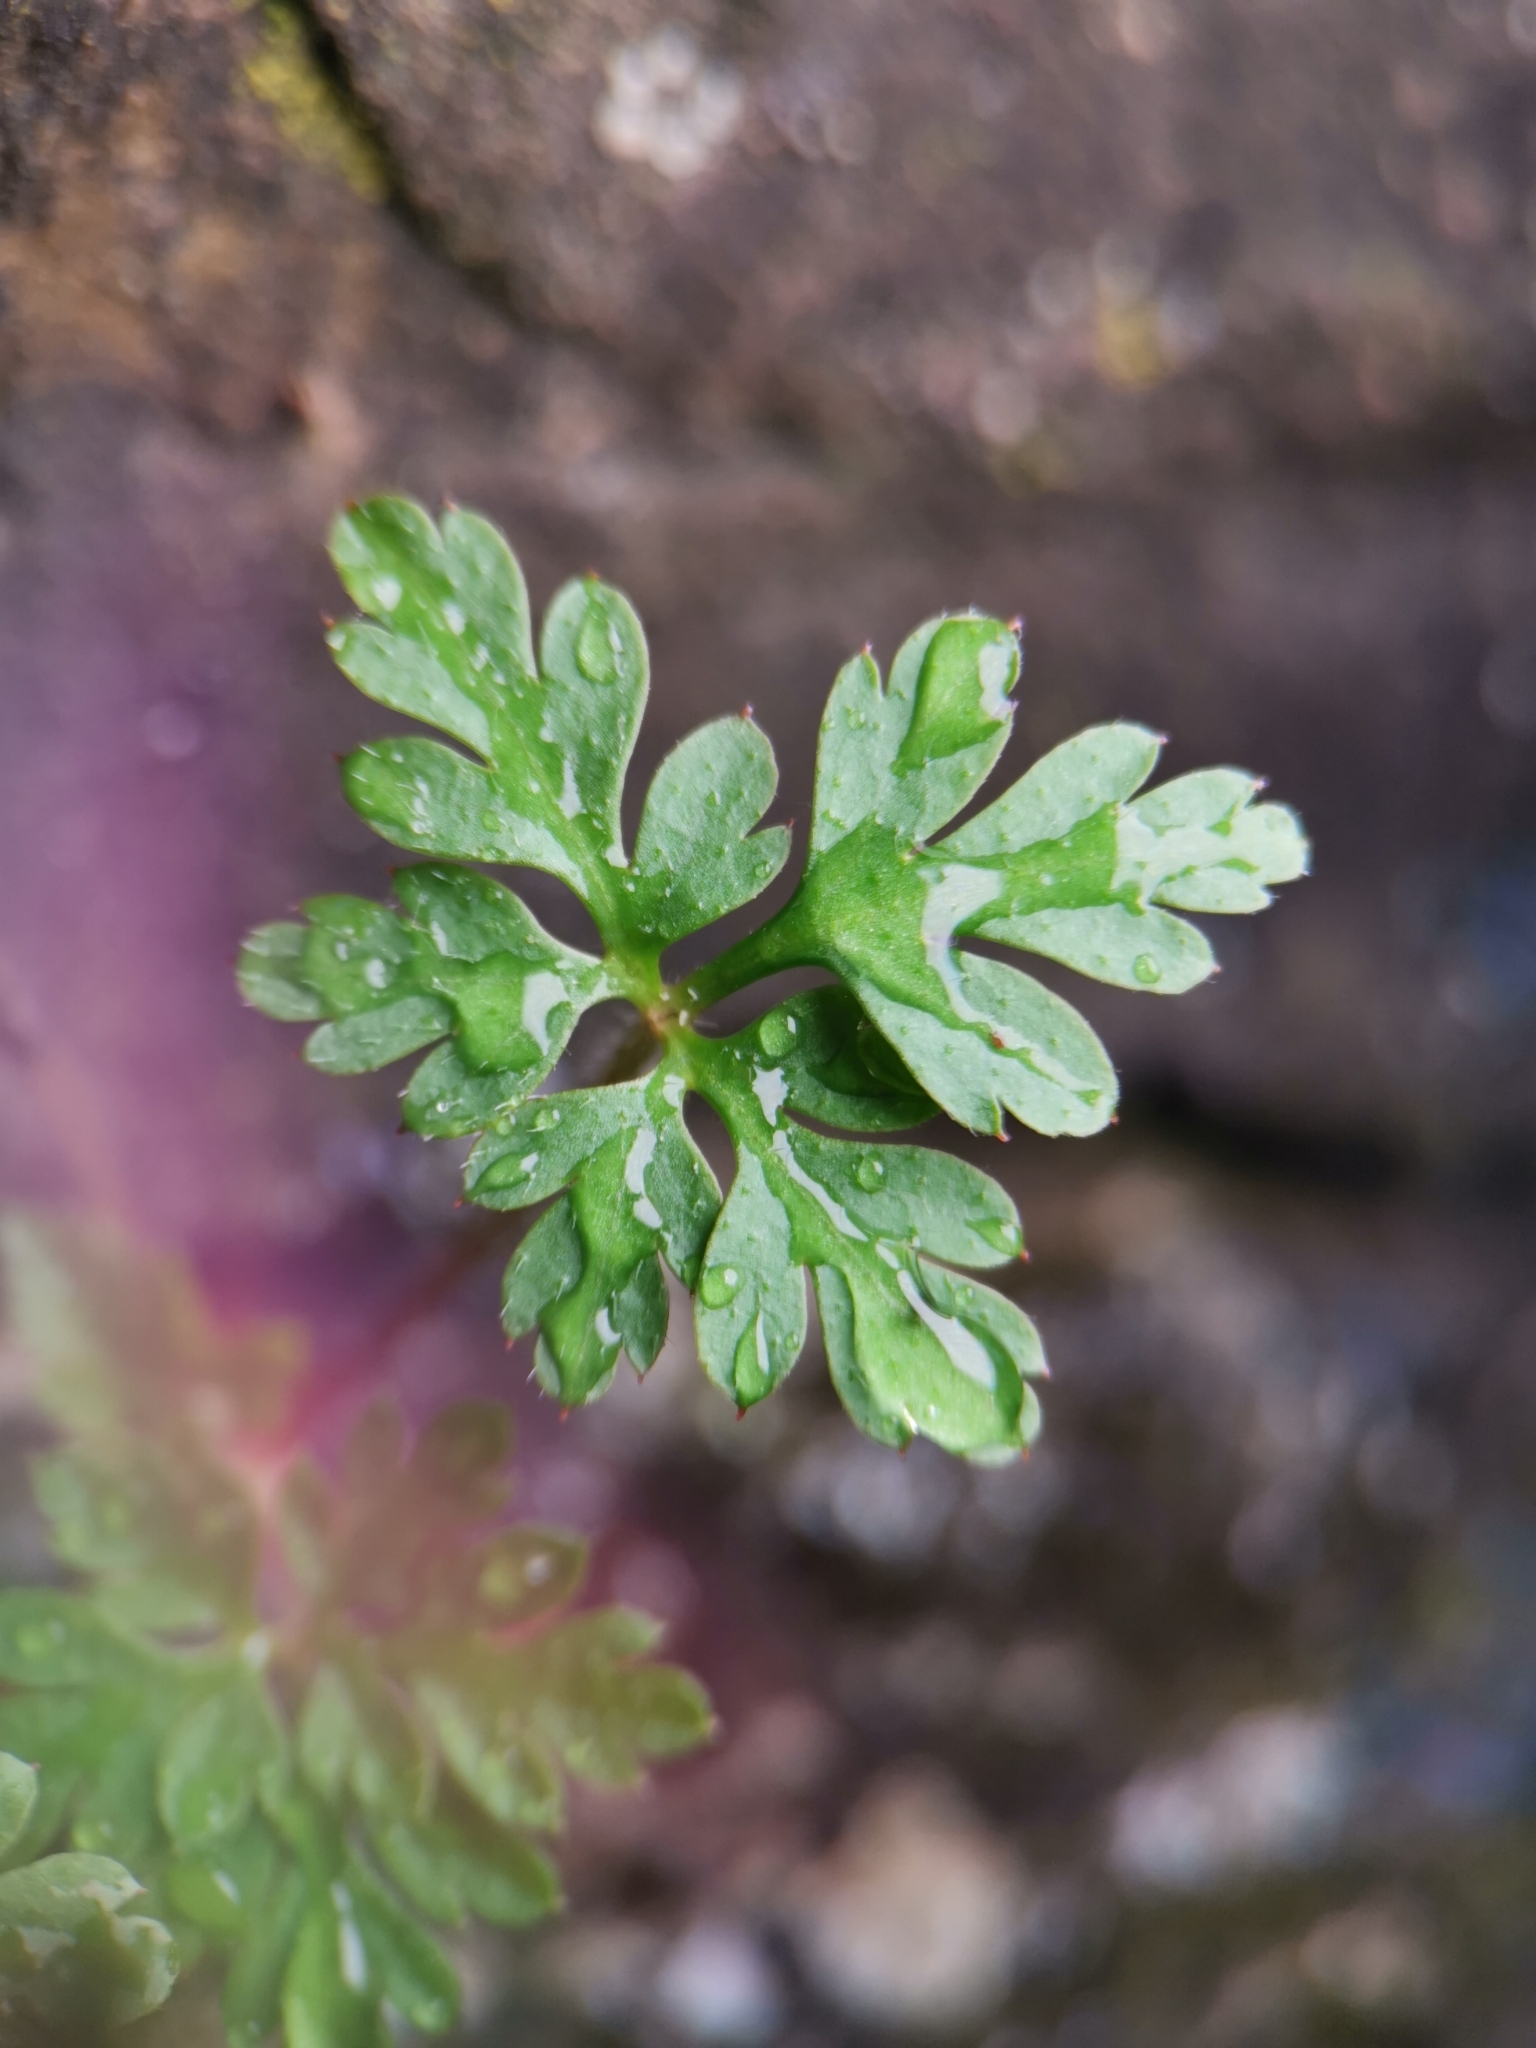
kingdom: Plantae
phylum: Tracheophyta
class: Magnoliopsida
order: Geraniales
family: Geraniaceae
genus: Geranium
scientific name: Geranium robertianum
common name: Herb-robert
